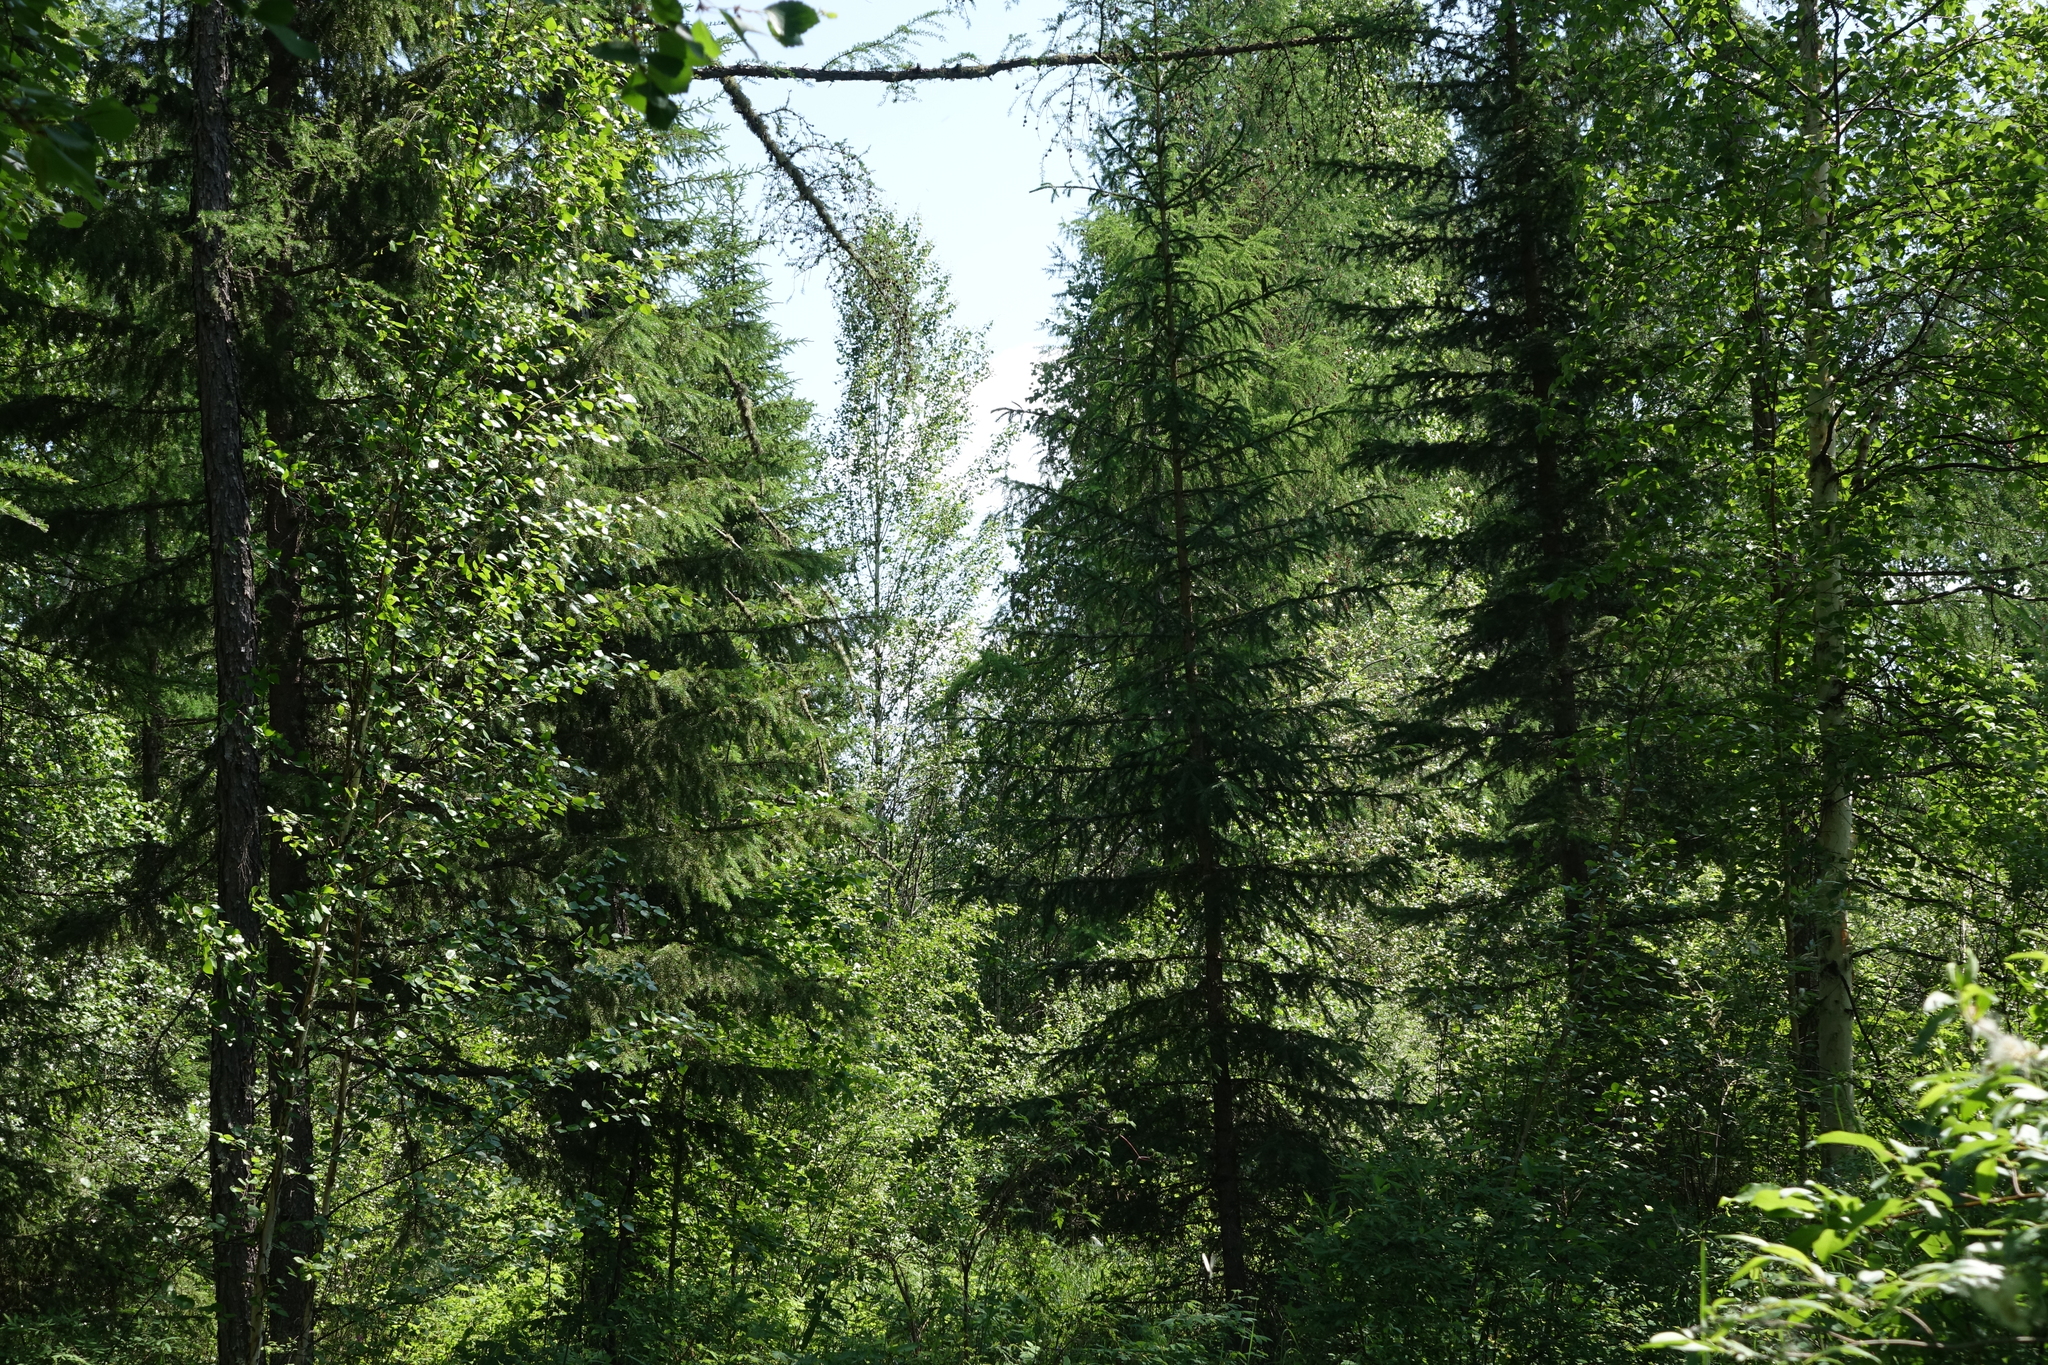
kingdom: Plantae
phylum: Tracheophyta
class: Pinopsida
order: Pinales
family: Pinaceae
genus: Picea
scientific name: Picea obovata
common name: Siberian spruce
